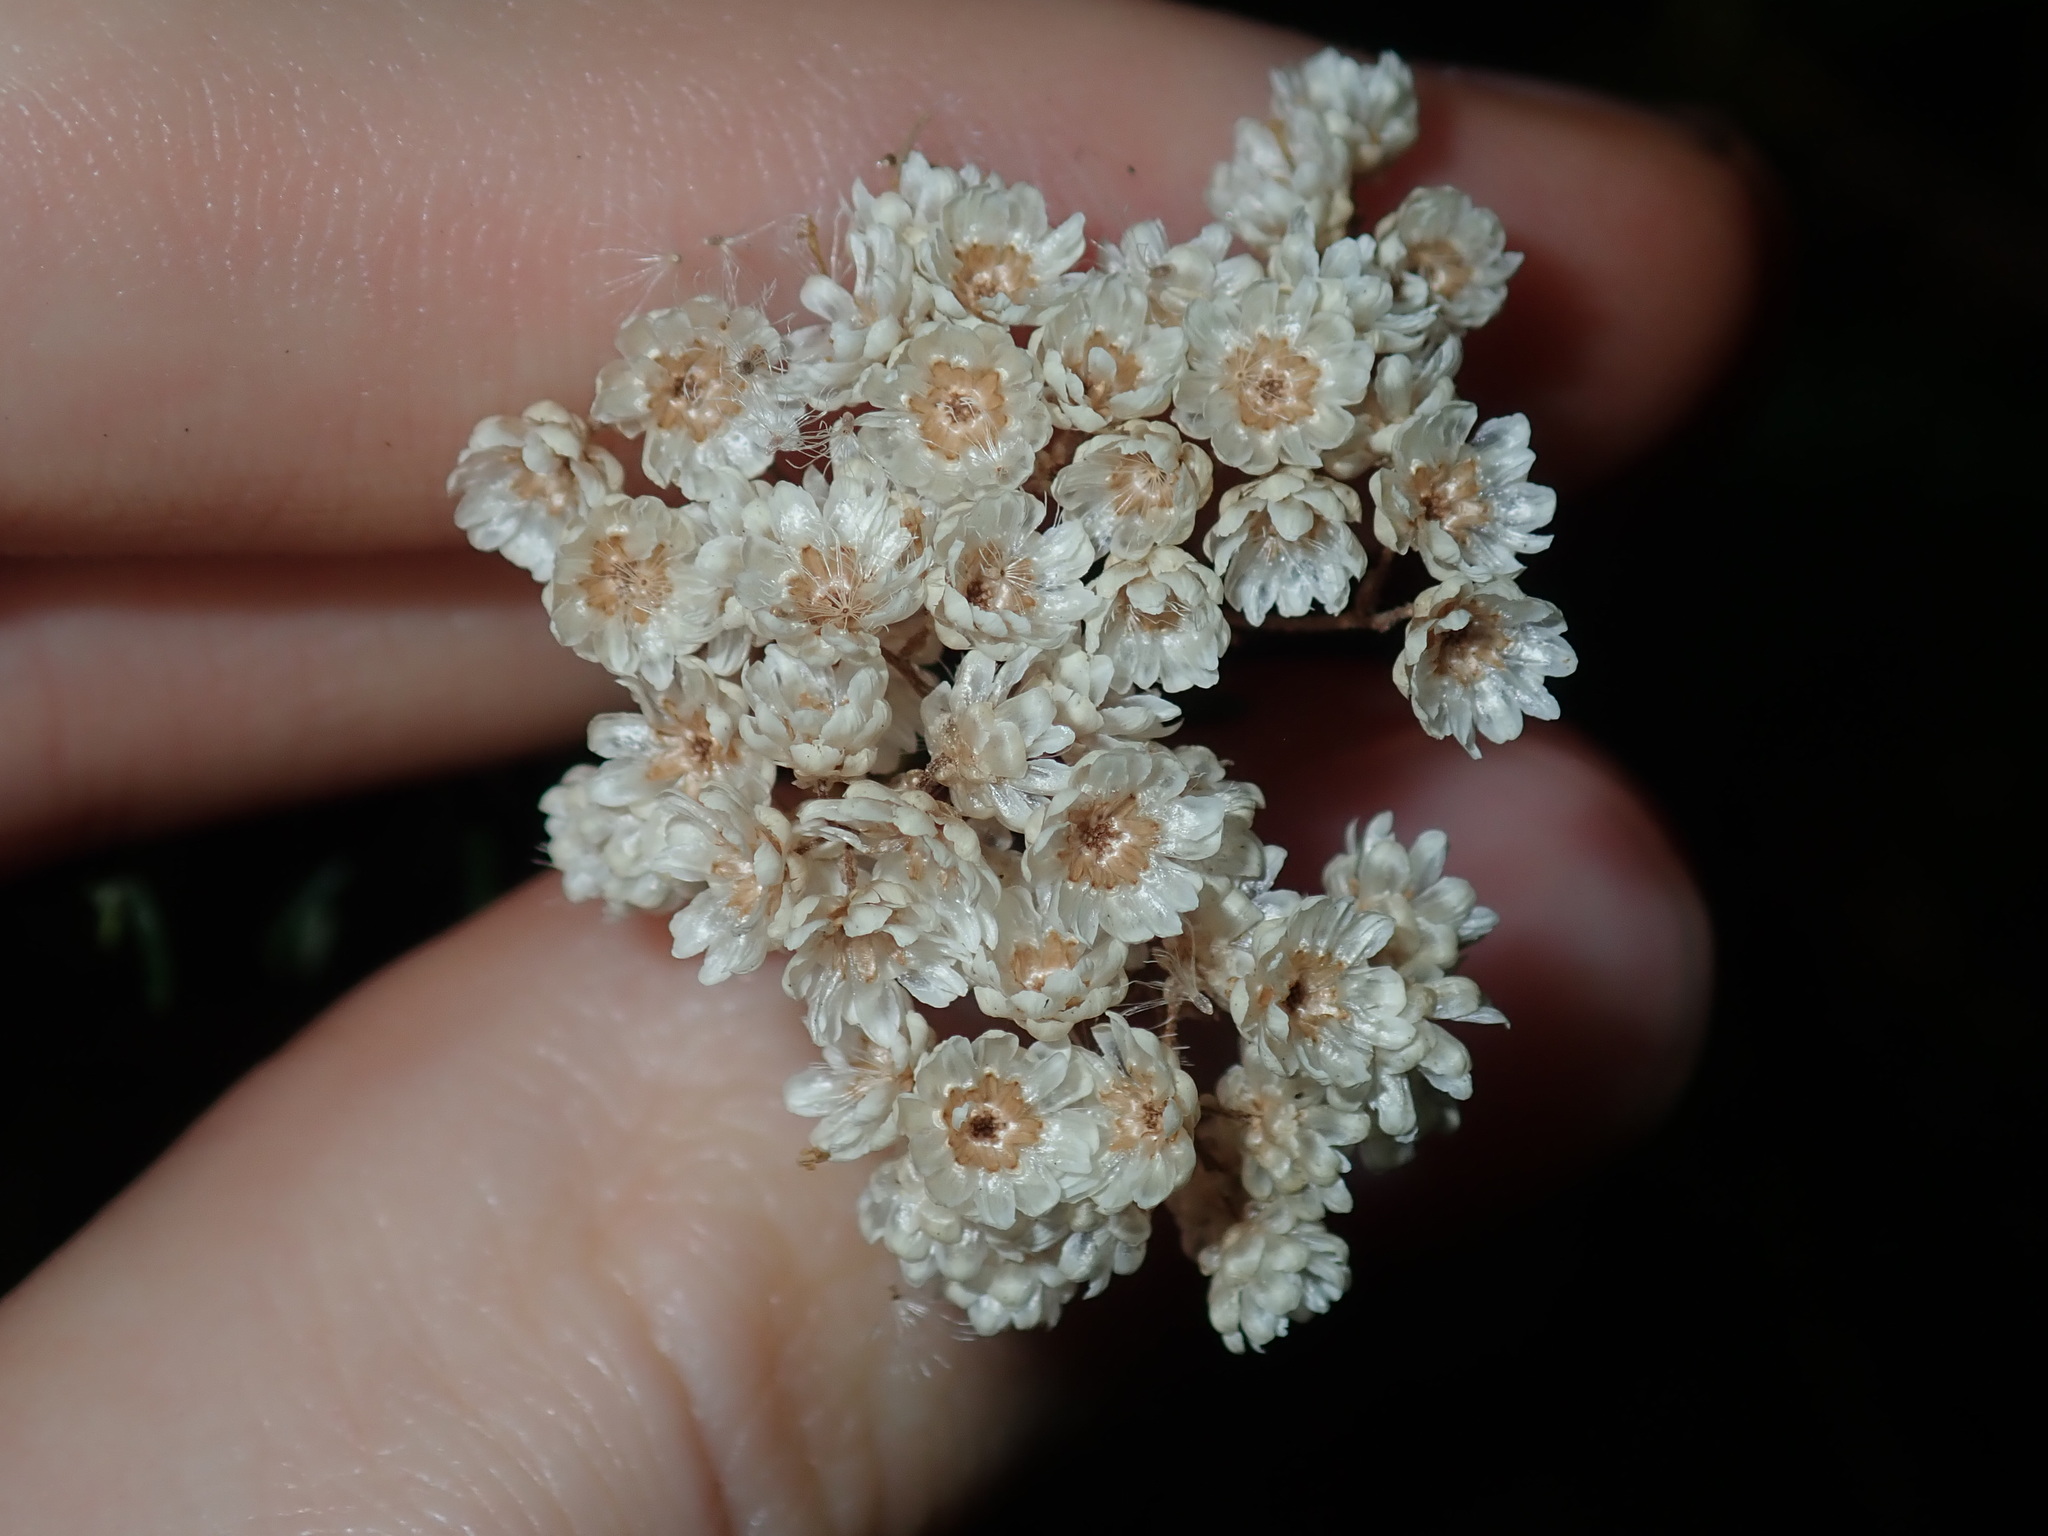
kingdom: Plantae
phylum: Tracheophyta
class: Magnoliopsida
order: Asterales
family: Asteraceae
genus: Ozothamnus
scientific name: Ozothamnus diosmifolius
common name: White-dogwood
